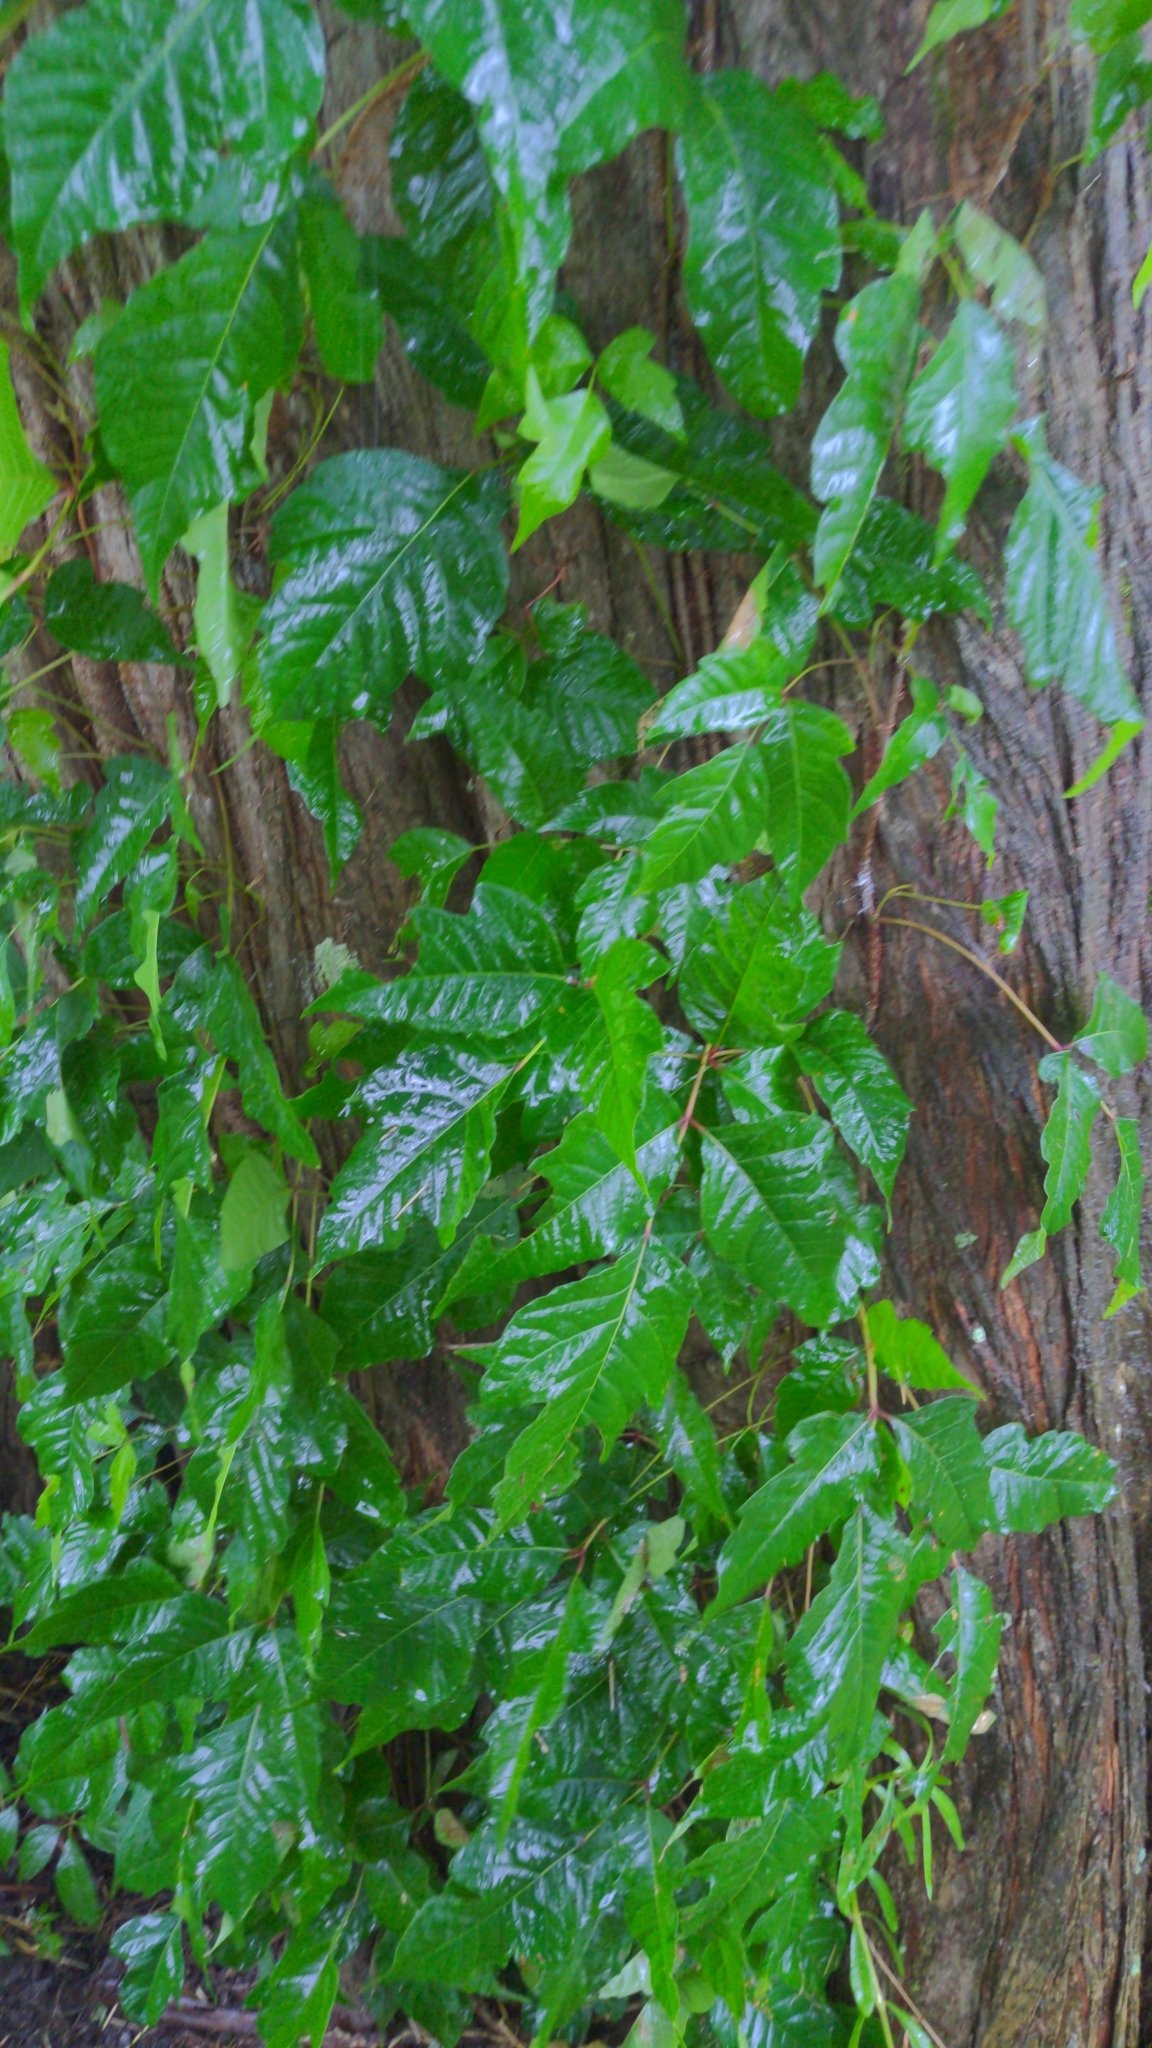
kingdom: Plantae
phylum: Tracheophyta
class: Magnoliopsida
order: Sapindales
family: Anacardiaceae
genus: Toxicodendron
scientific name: Toxicodendron radicans
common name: Poison ivy
